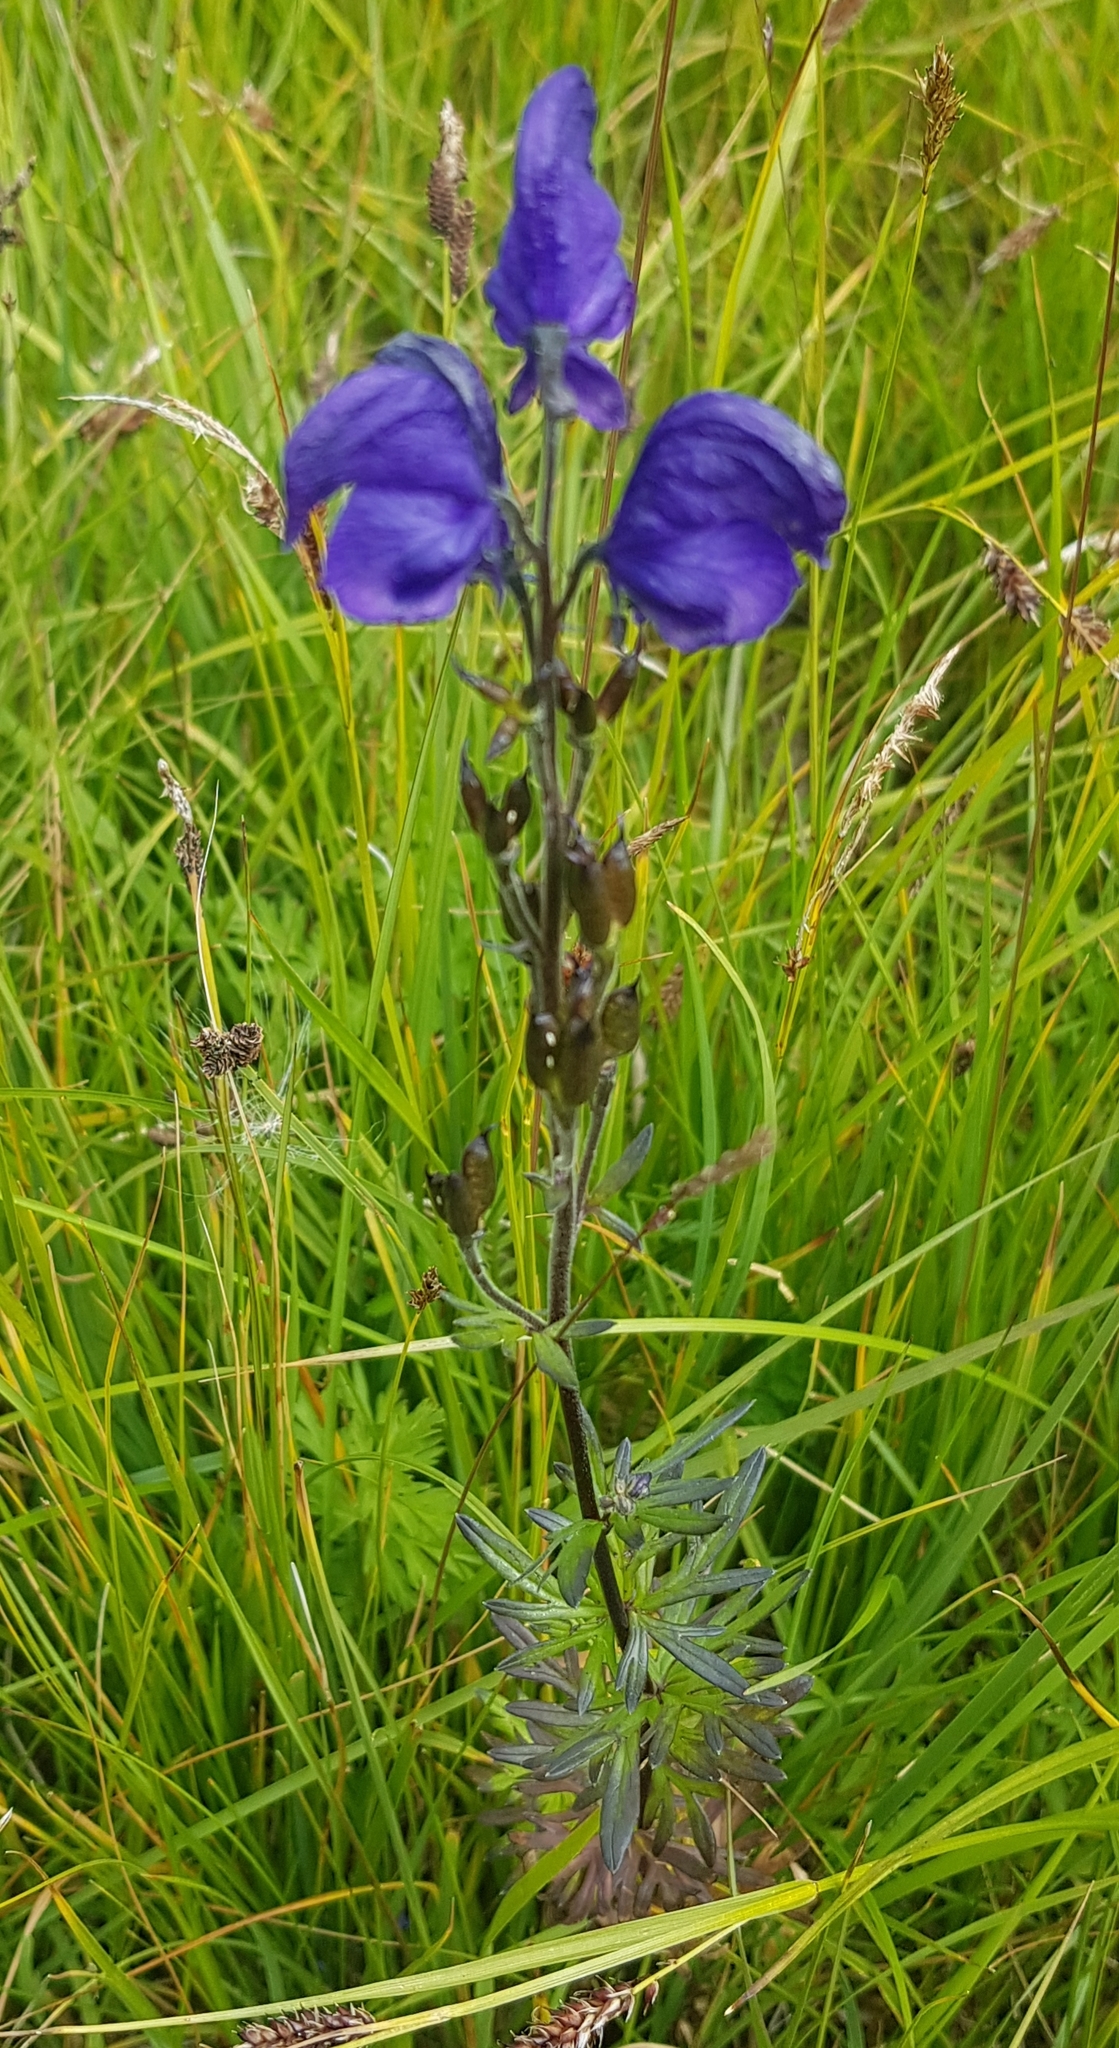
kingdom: Plantae
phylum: Tracheophyta
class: Magnoliopsida
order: Ranunculales
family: Ranunculaceae
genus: Aconitum
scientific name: Aconitum baicalense
